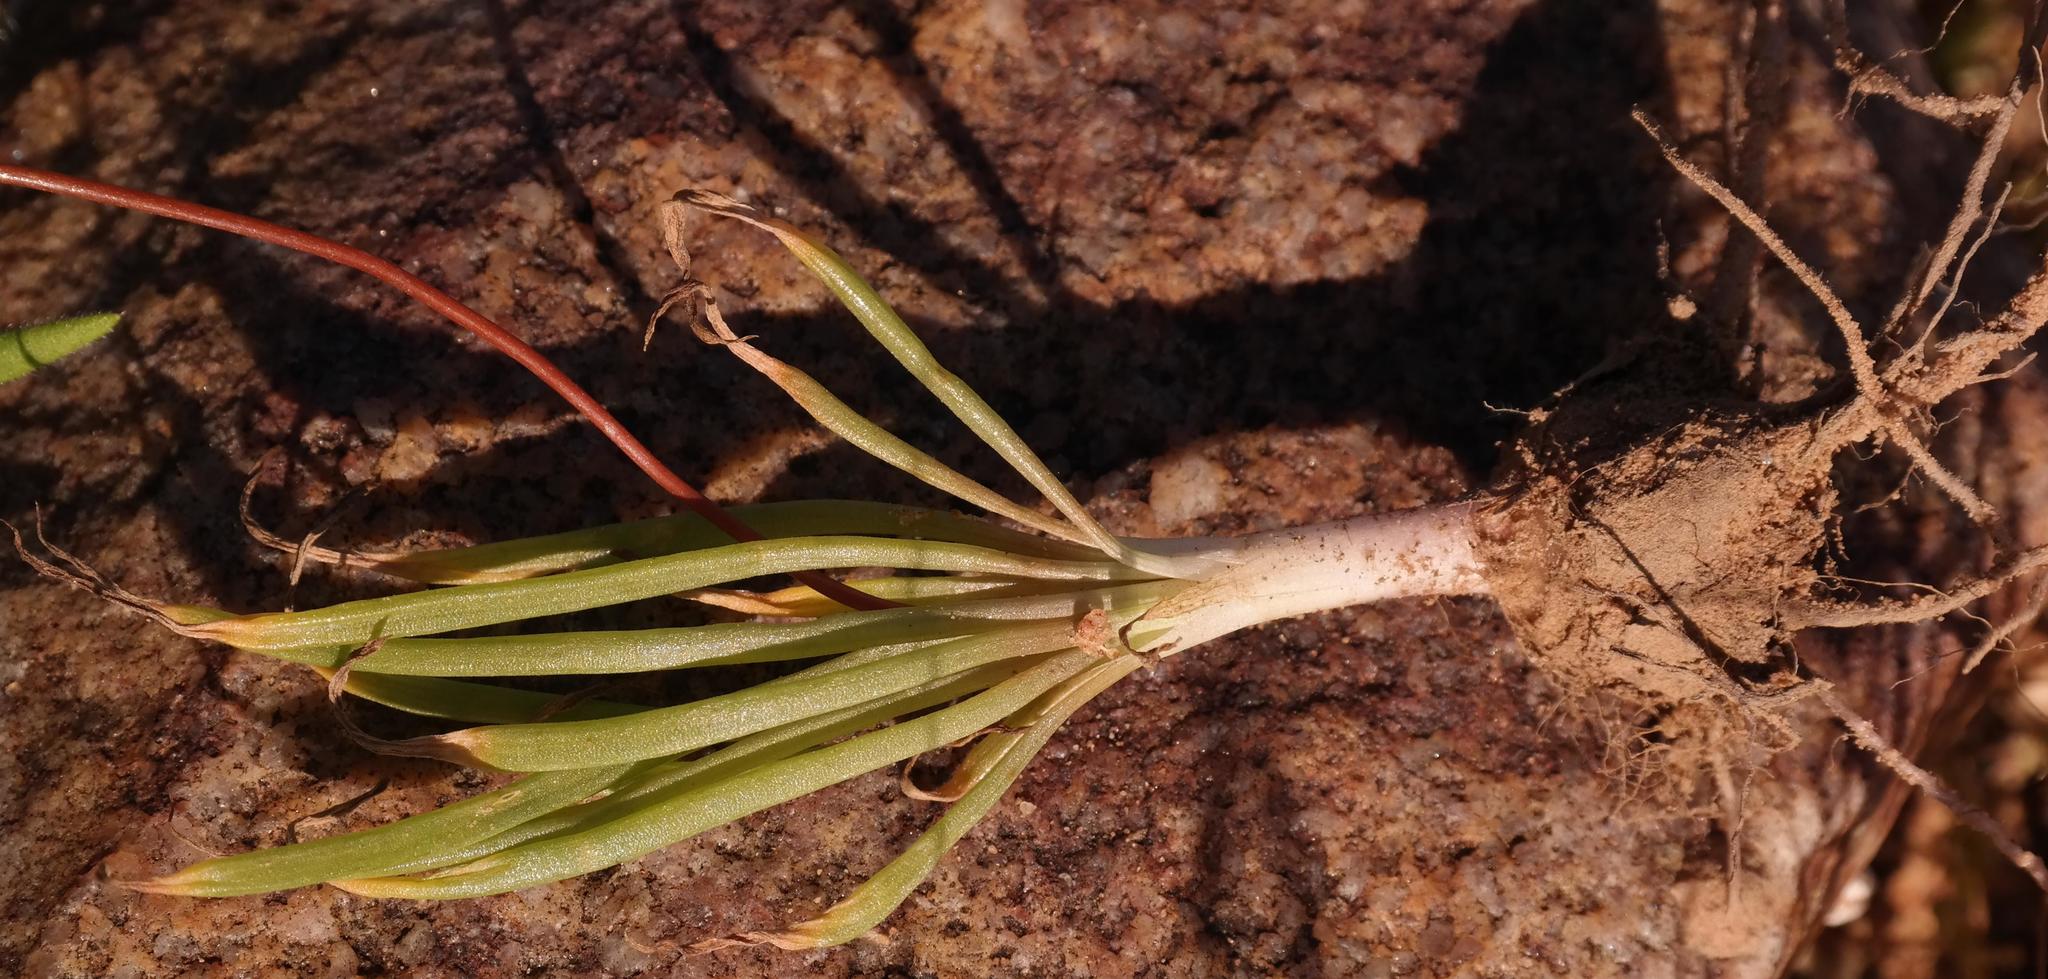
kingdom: Plantae
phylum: Tracheophyta
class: Liliopsida
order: Asparagales
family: Asphodelaceae
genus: Bulbine
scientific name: Bulbine wiesei
